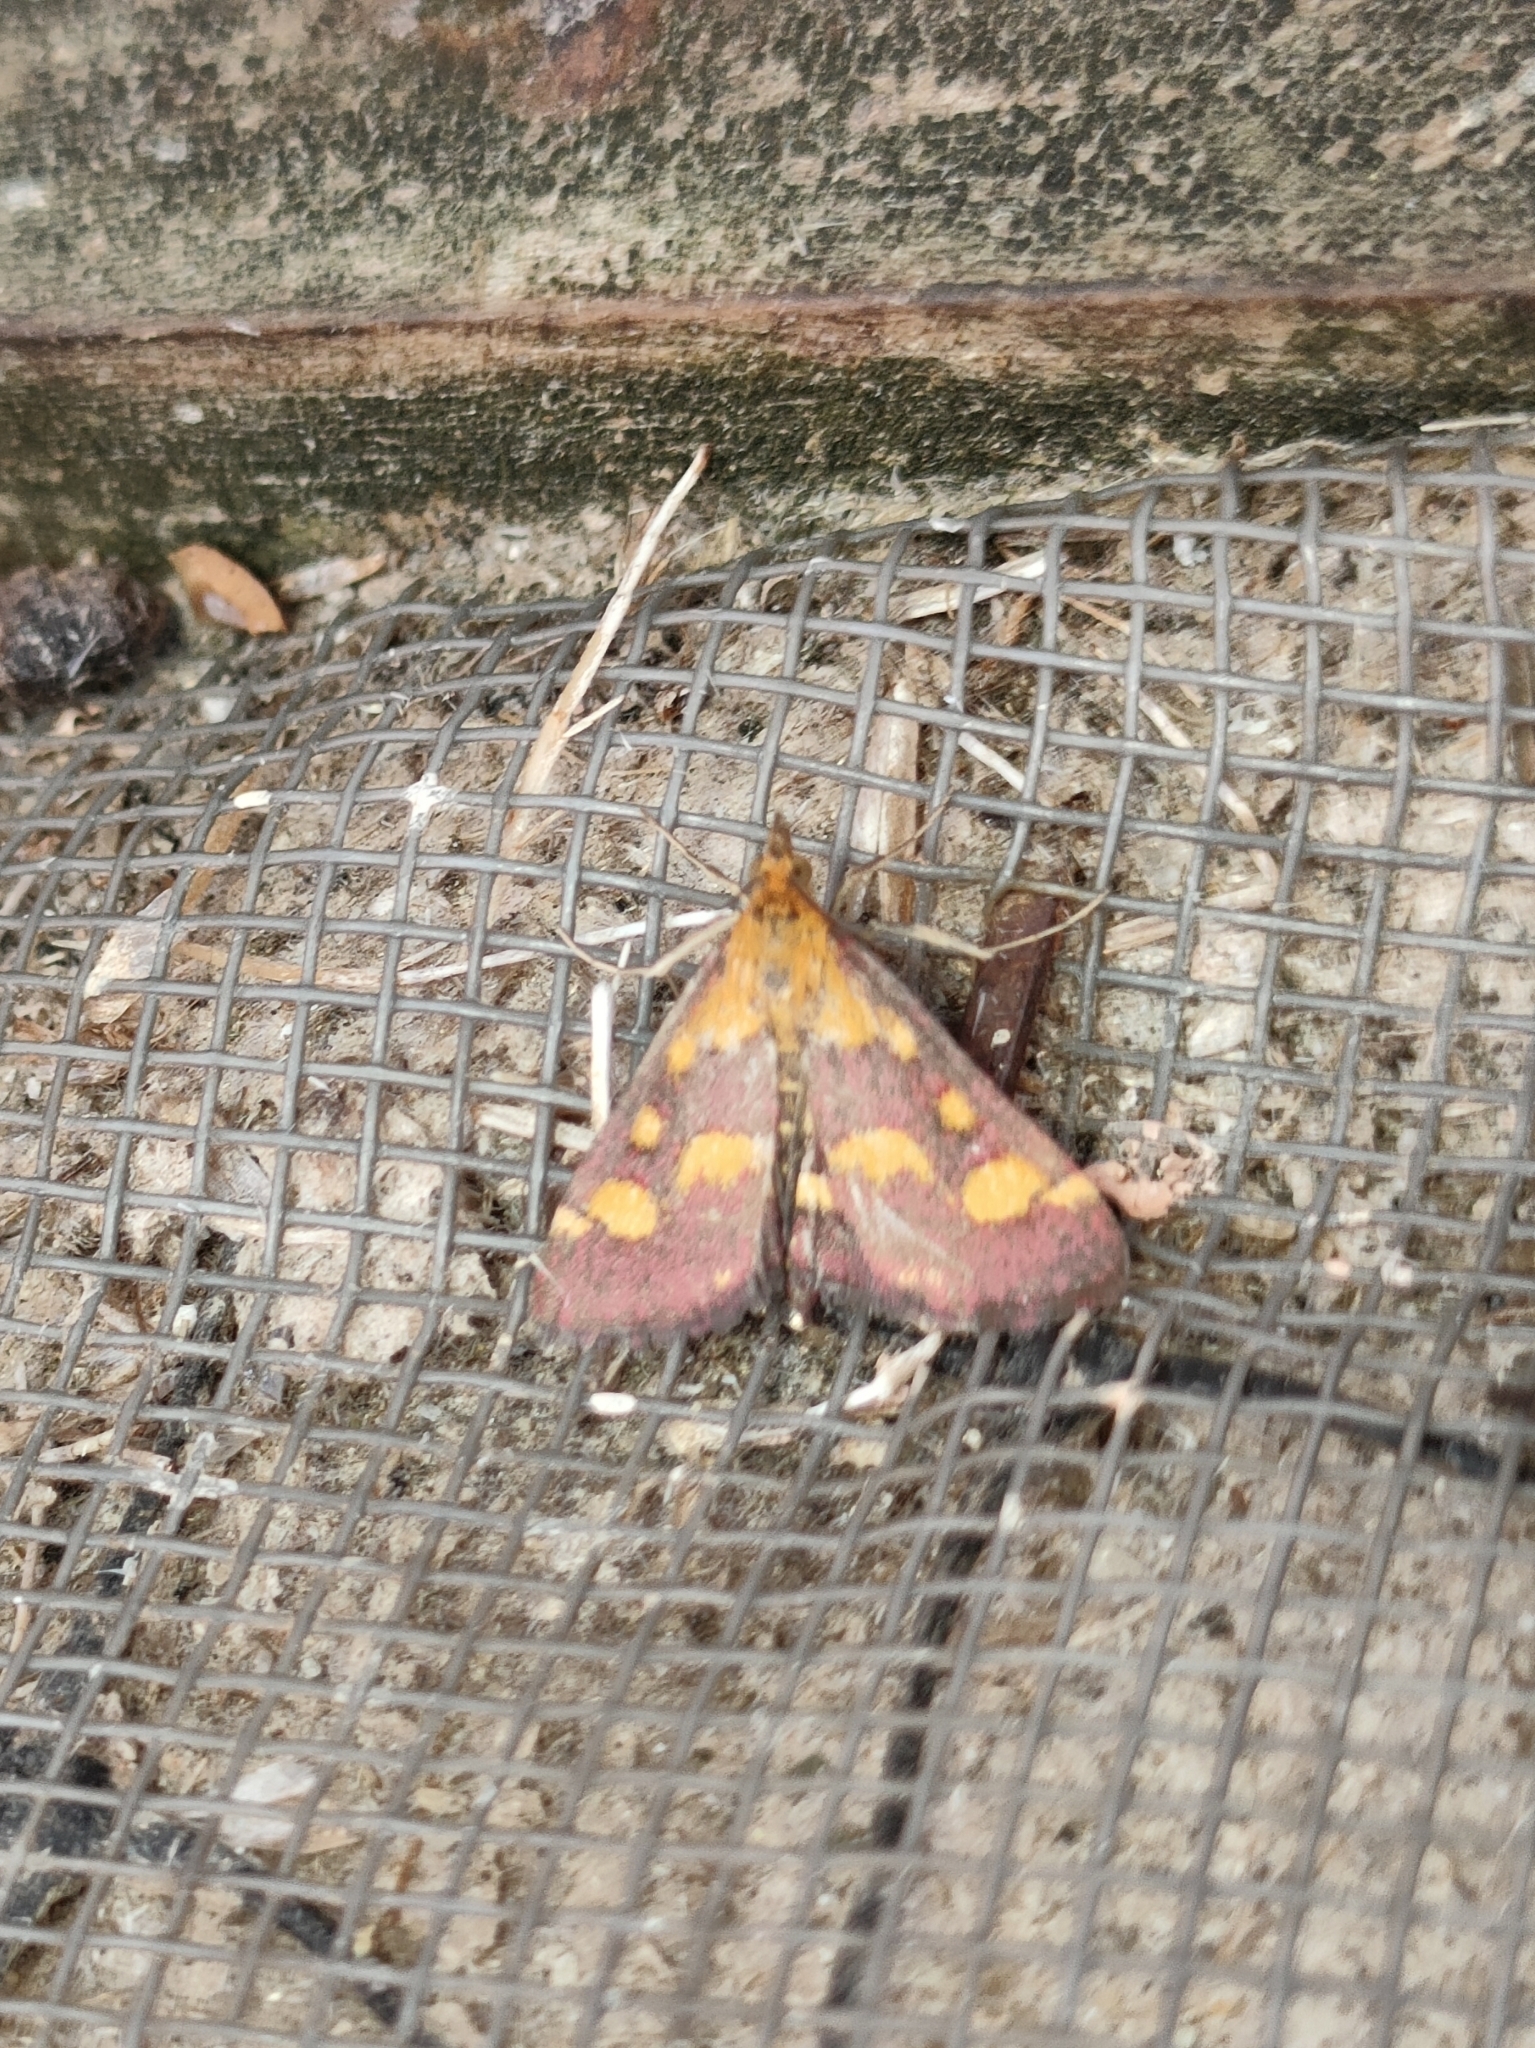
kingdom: Animalia
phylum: Arthropoda
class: Insecta
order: Lepidoptera
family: Crambidae
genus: Pyrausta
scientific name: Pyrausta purpuralis
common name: Common purple & gold
